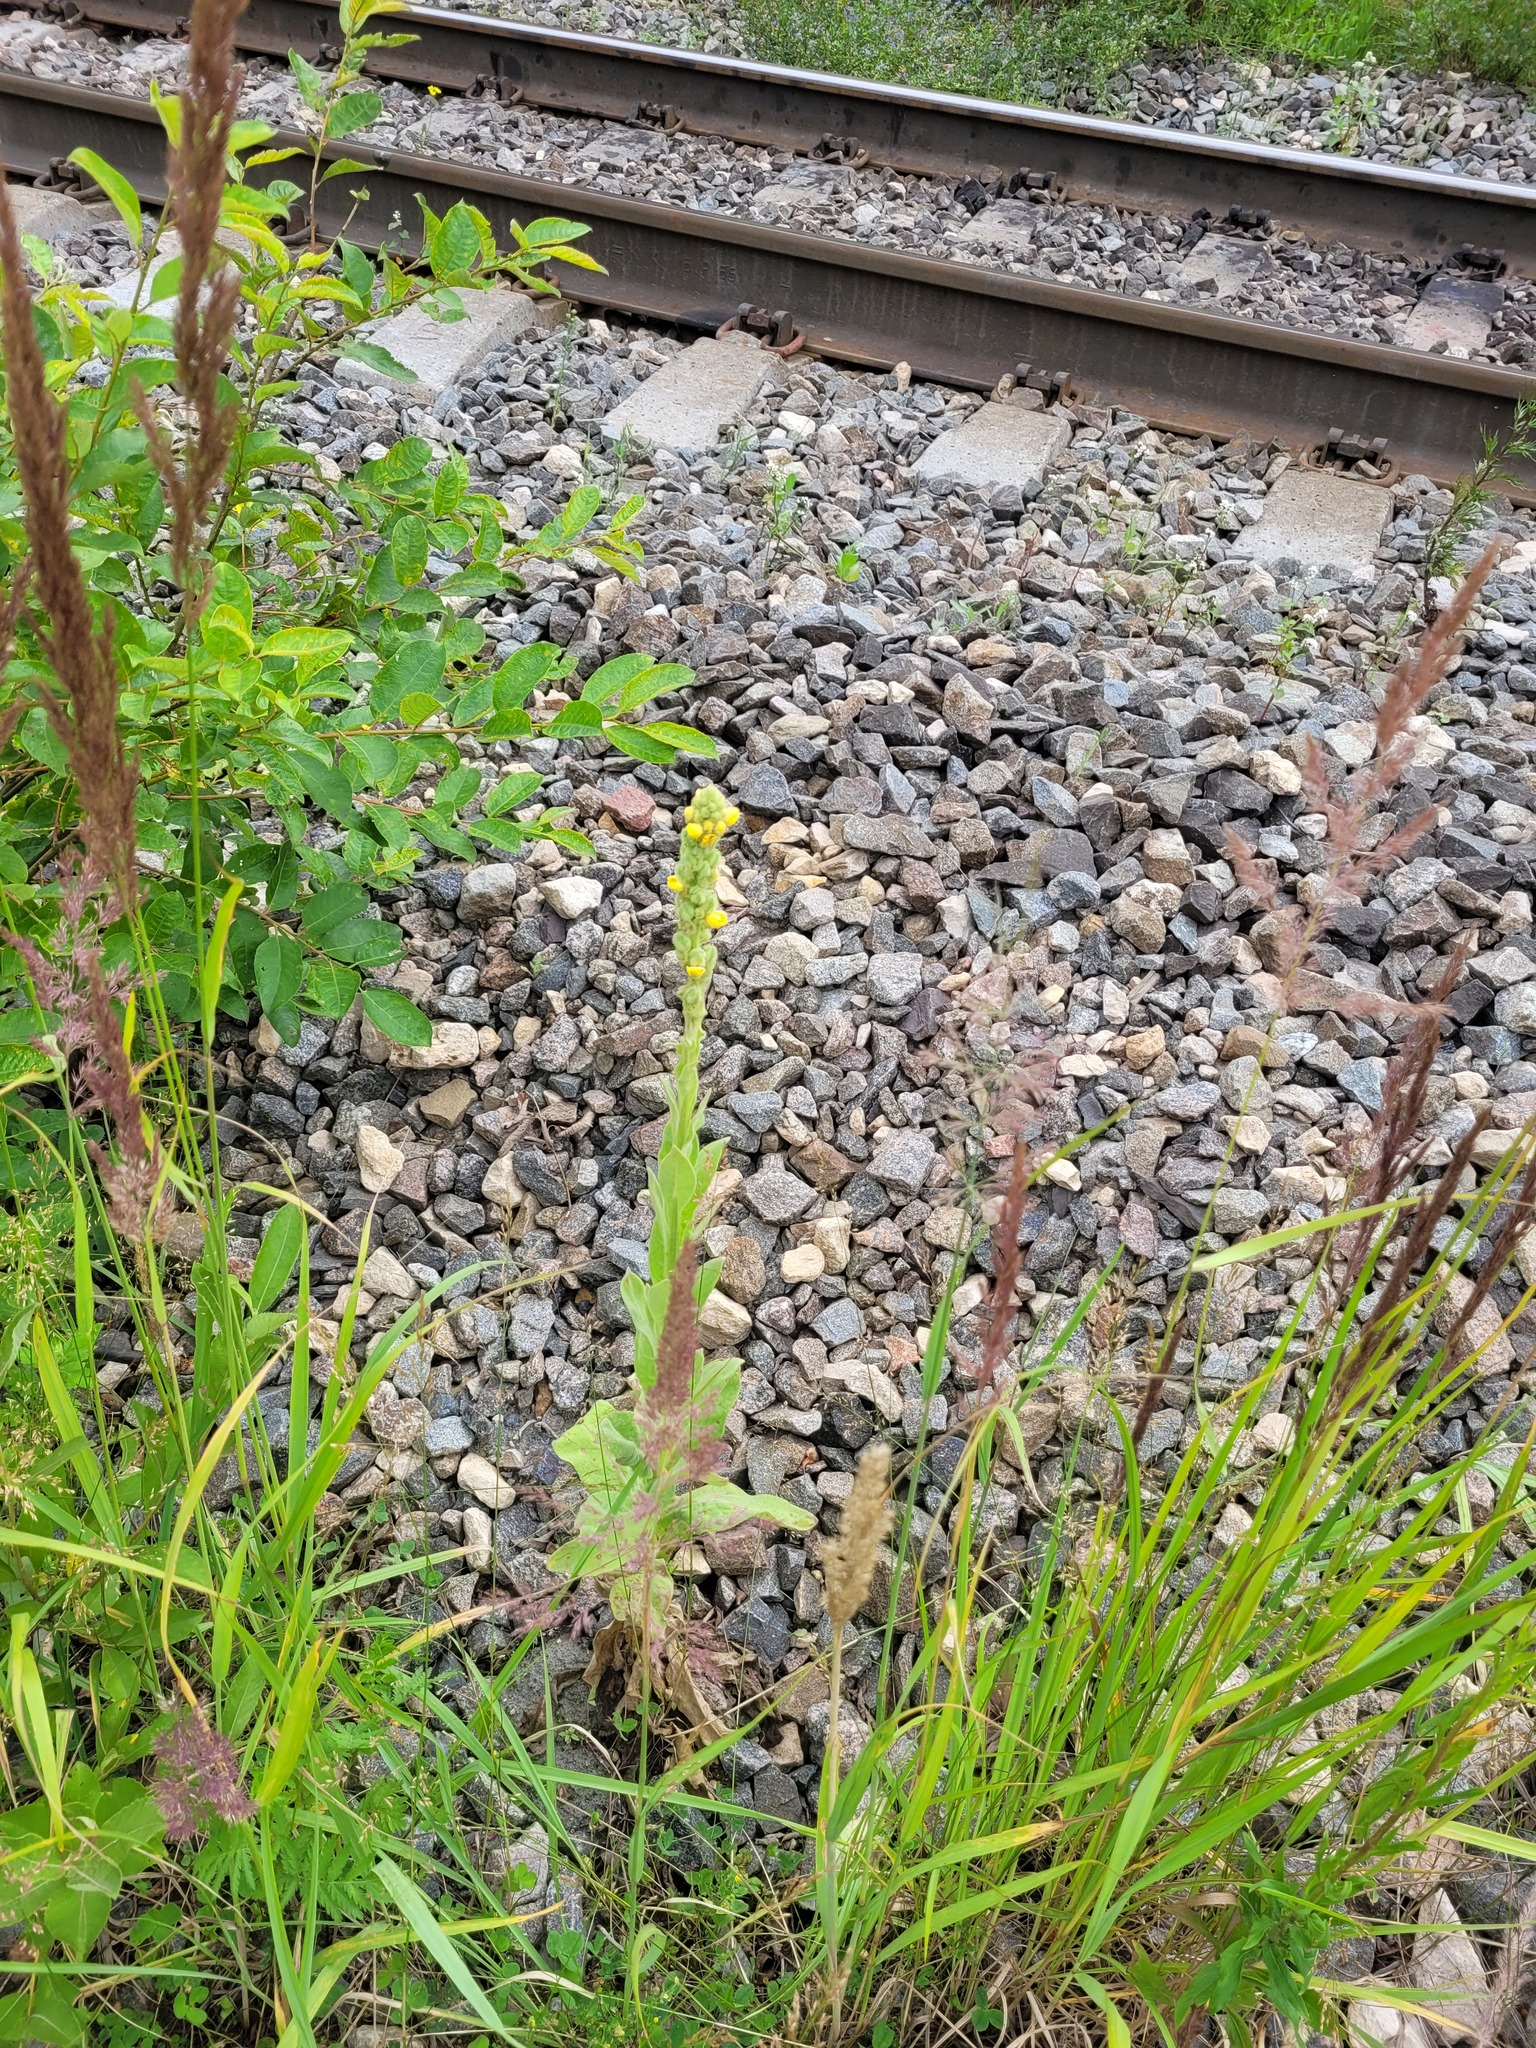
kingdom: Plantae
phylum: Tracheophyta
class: Magnoliopsida
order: Lamiales
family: Scrophulariaceae
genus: Verbascum
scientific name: Verbascum thapsus
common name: Common mullein
